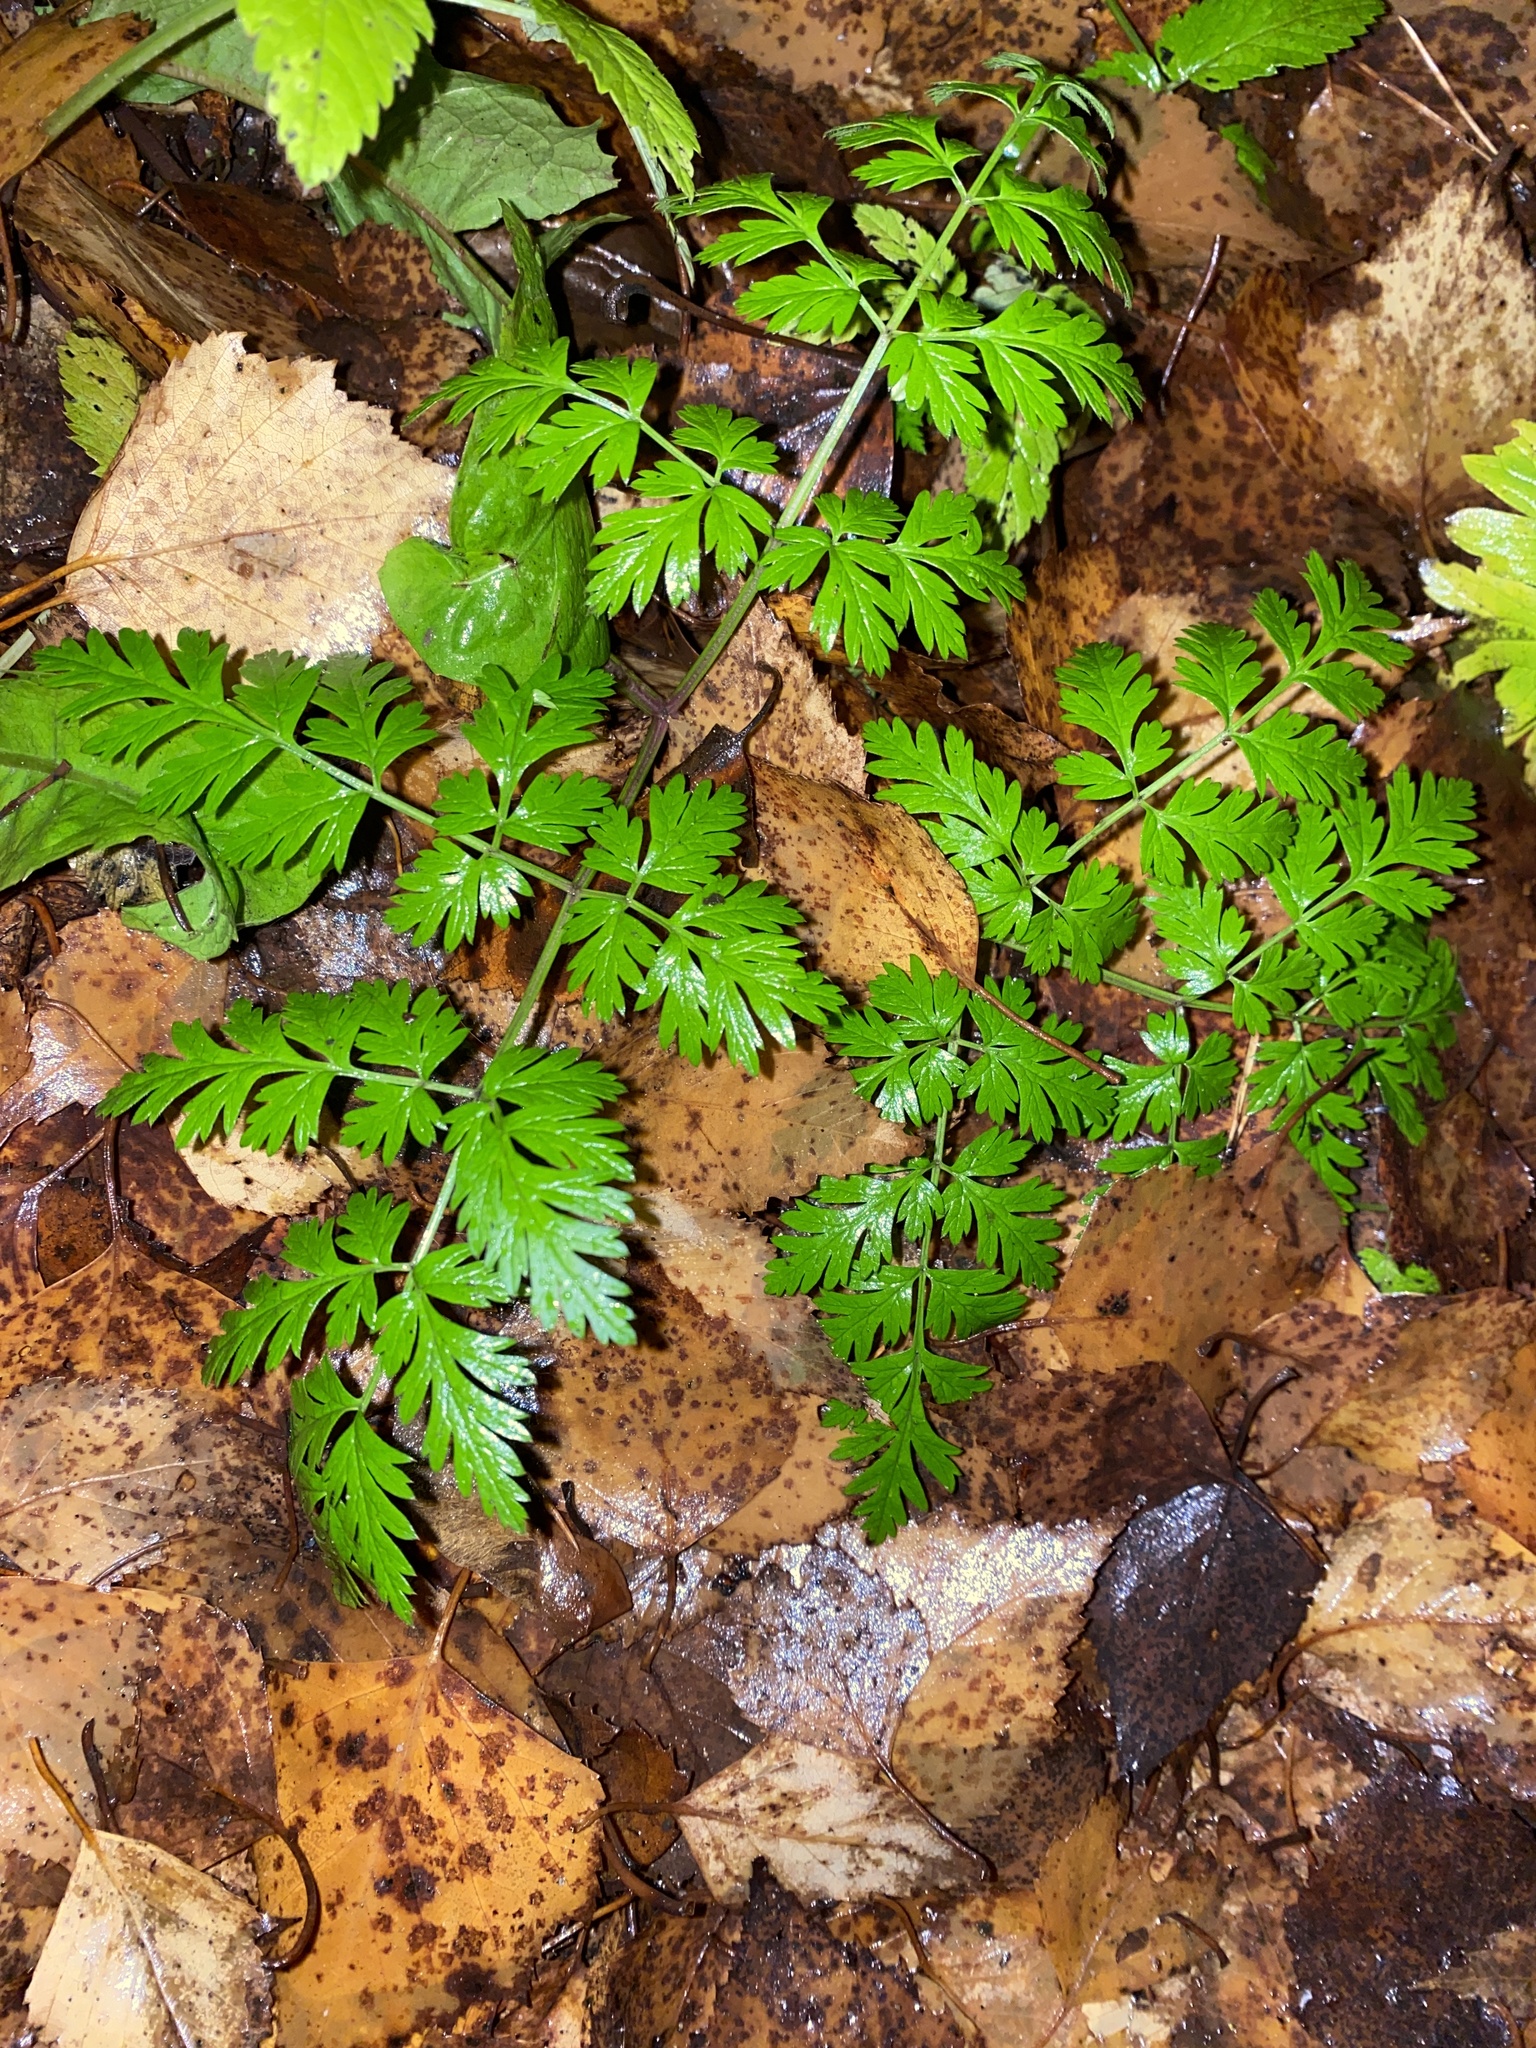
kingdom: Plantae
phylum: Tracheophyta
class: Magnoliopsida
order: Apiales
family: Apiaceae
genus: Anthriscus
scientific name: Anthriscus sylvestris
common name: Cow parsley
